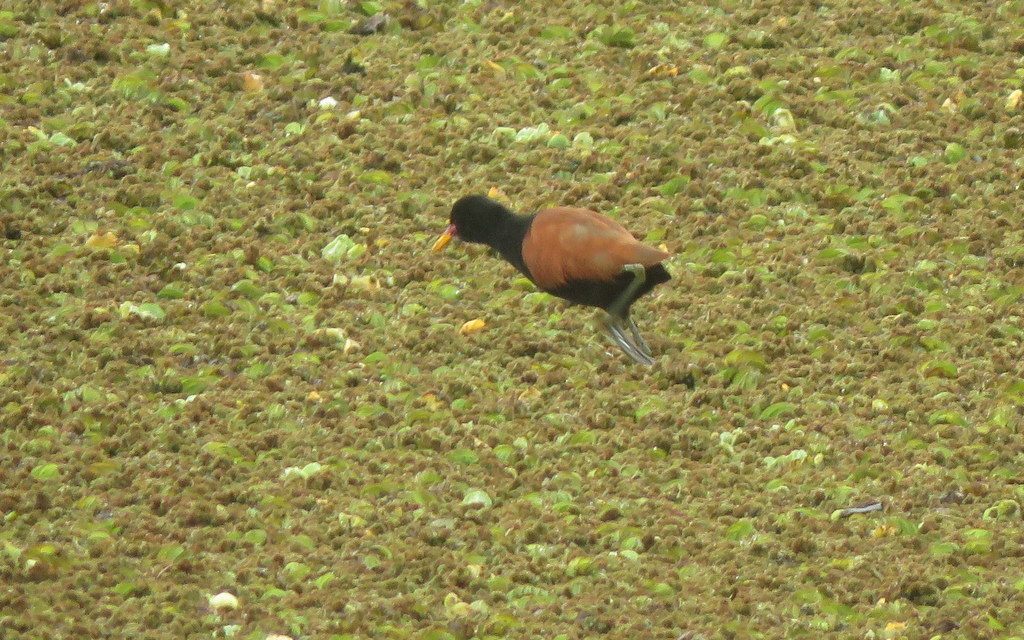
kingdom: Animalia
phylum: Chordata
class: Aves
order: Charadriiformes
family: Jacanidae
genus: Jacana
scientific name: Jacana jacana
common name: Wattled jacana
